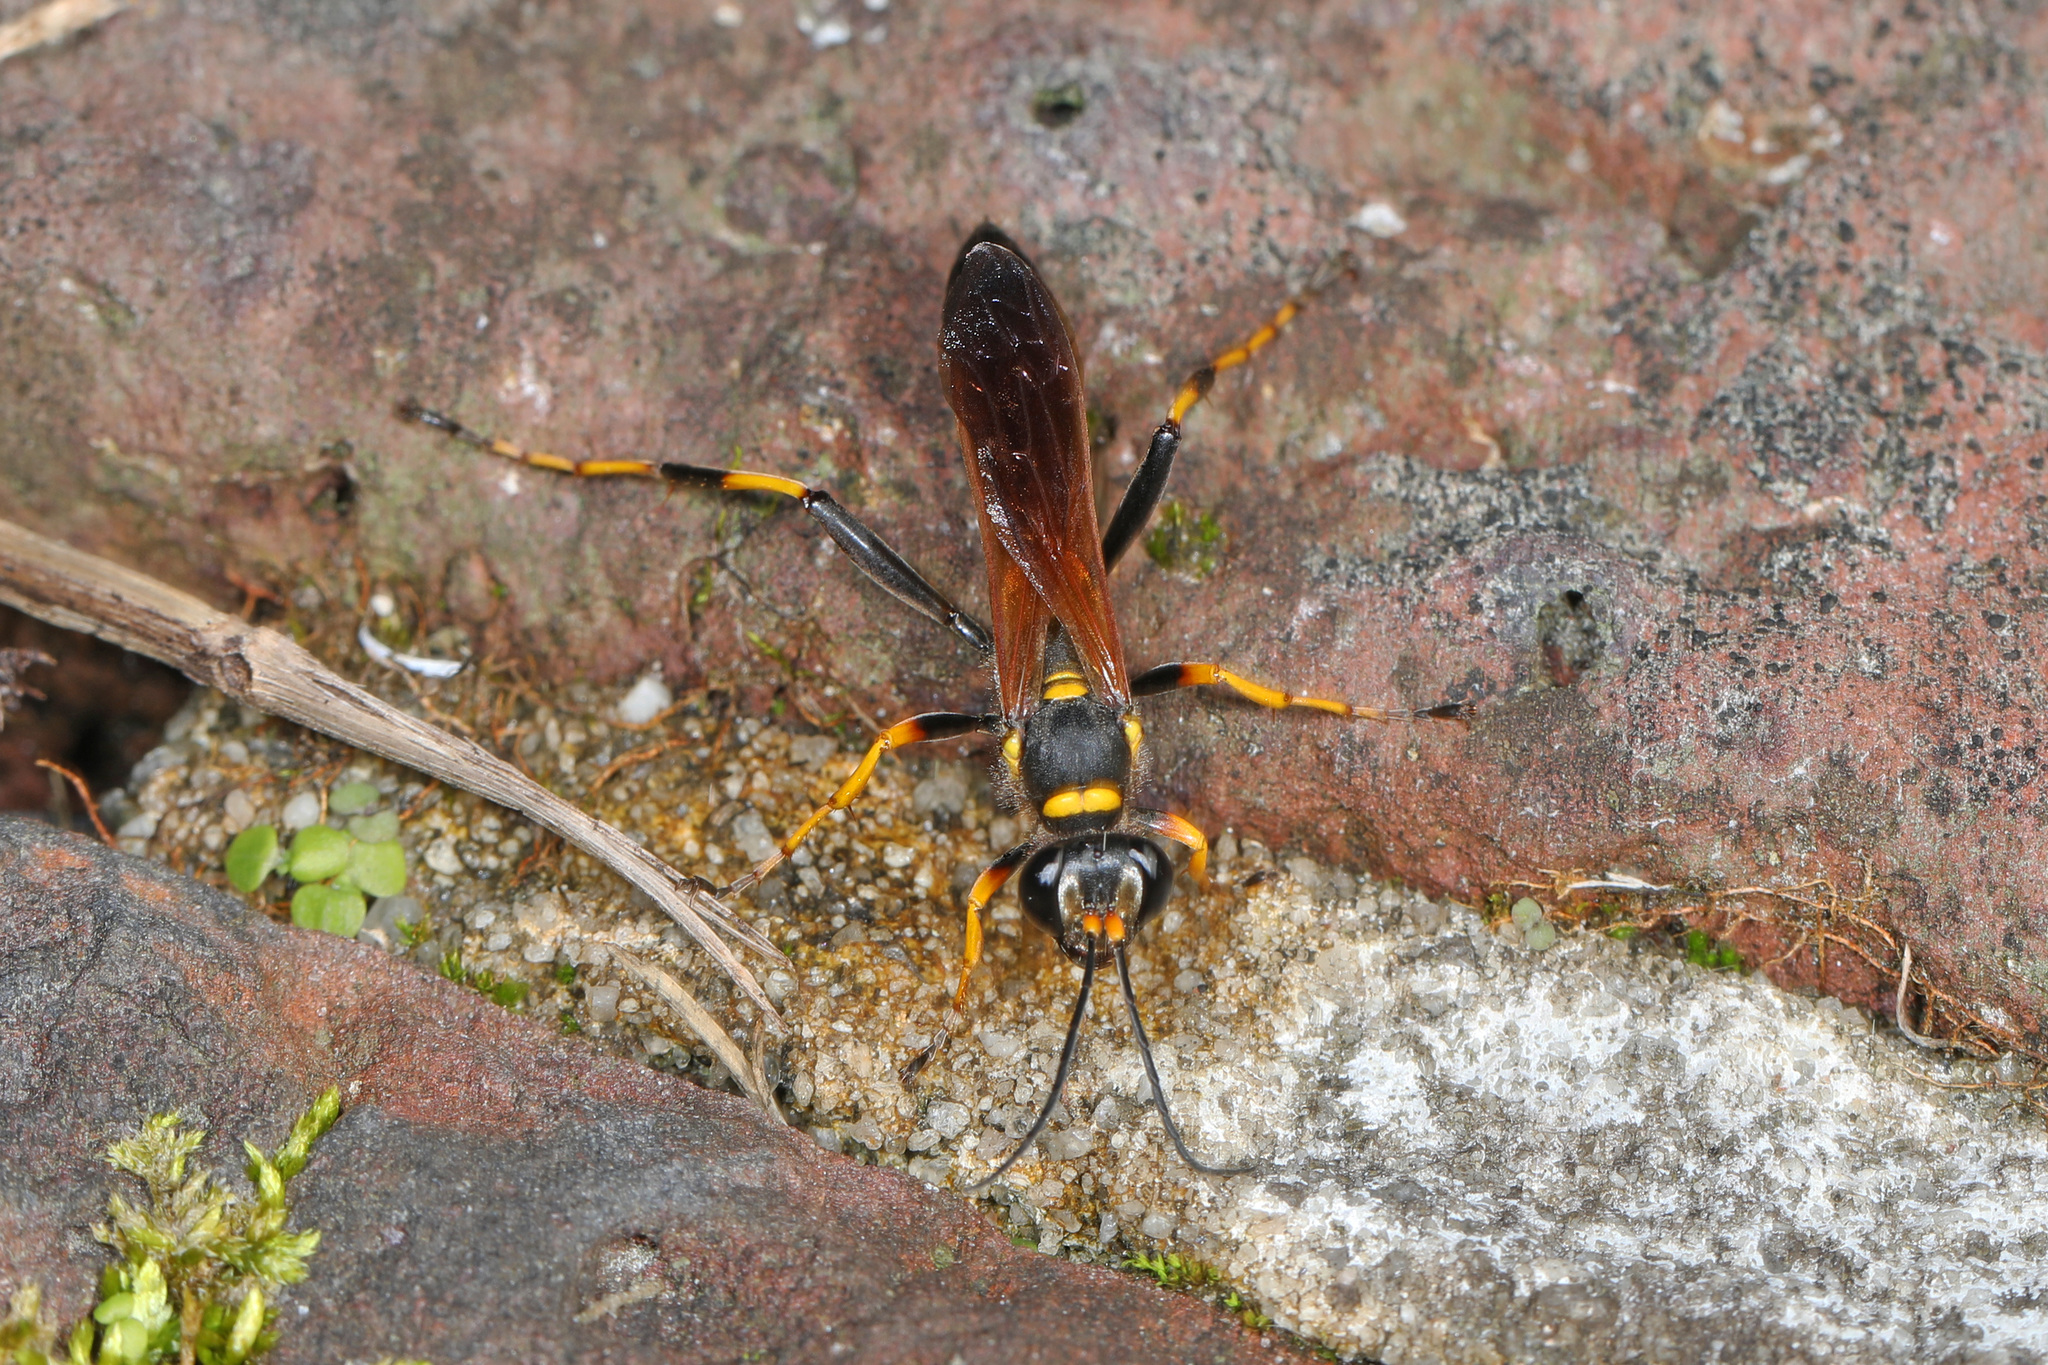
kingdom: Animalia
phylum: Arthropoda
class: Insecta
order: Hymenoptera
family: Sphecidae
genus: Sceliphron
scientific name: Sceliphron caementarium
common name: Mud dauber
